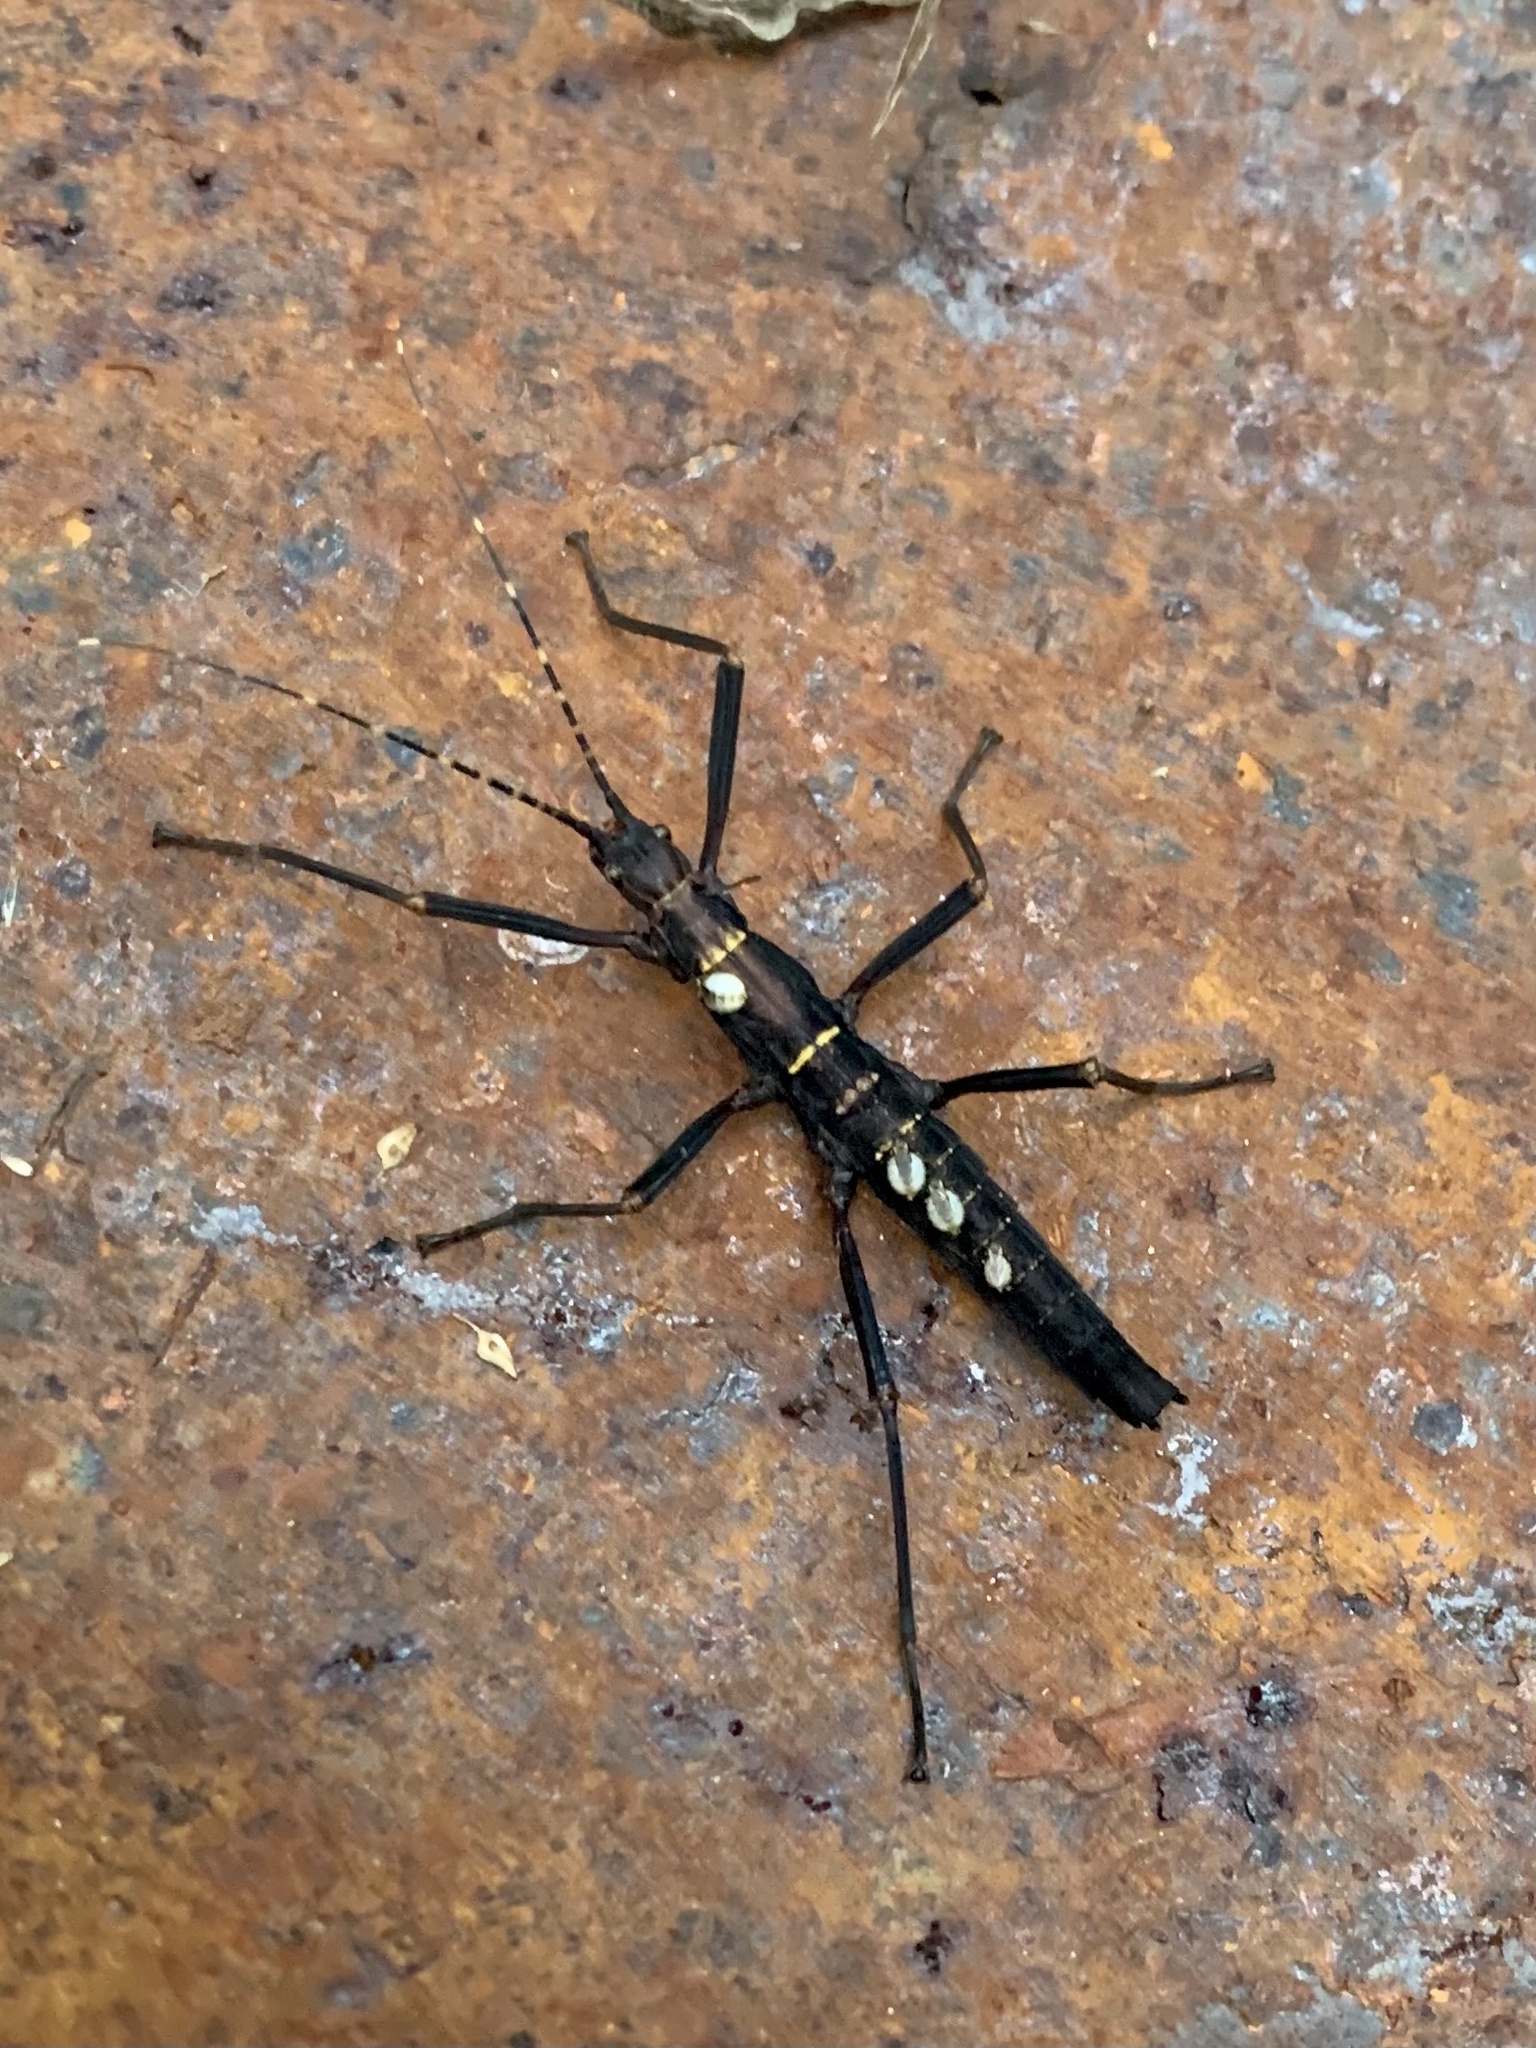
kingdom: Animalia
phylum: Arthropoda
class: Insecta
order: Phasmida
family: Pseudophasmatidae
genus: Peruphasma
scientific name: Peruphasma transversatum
